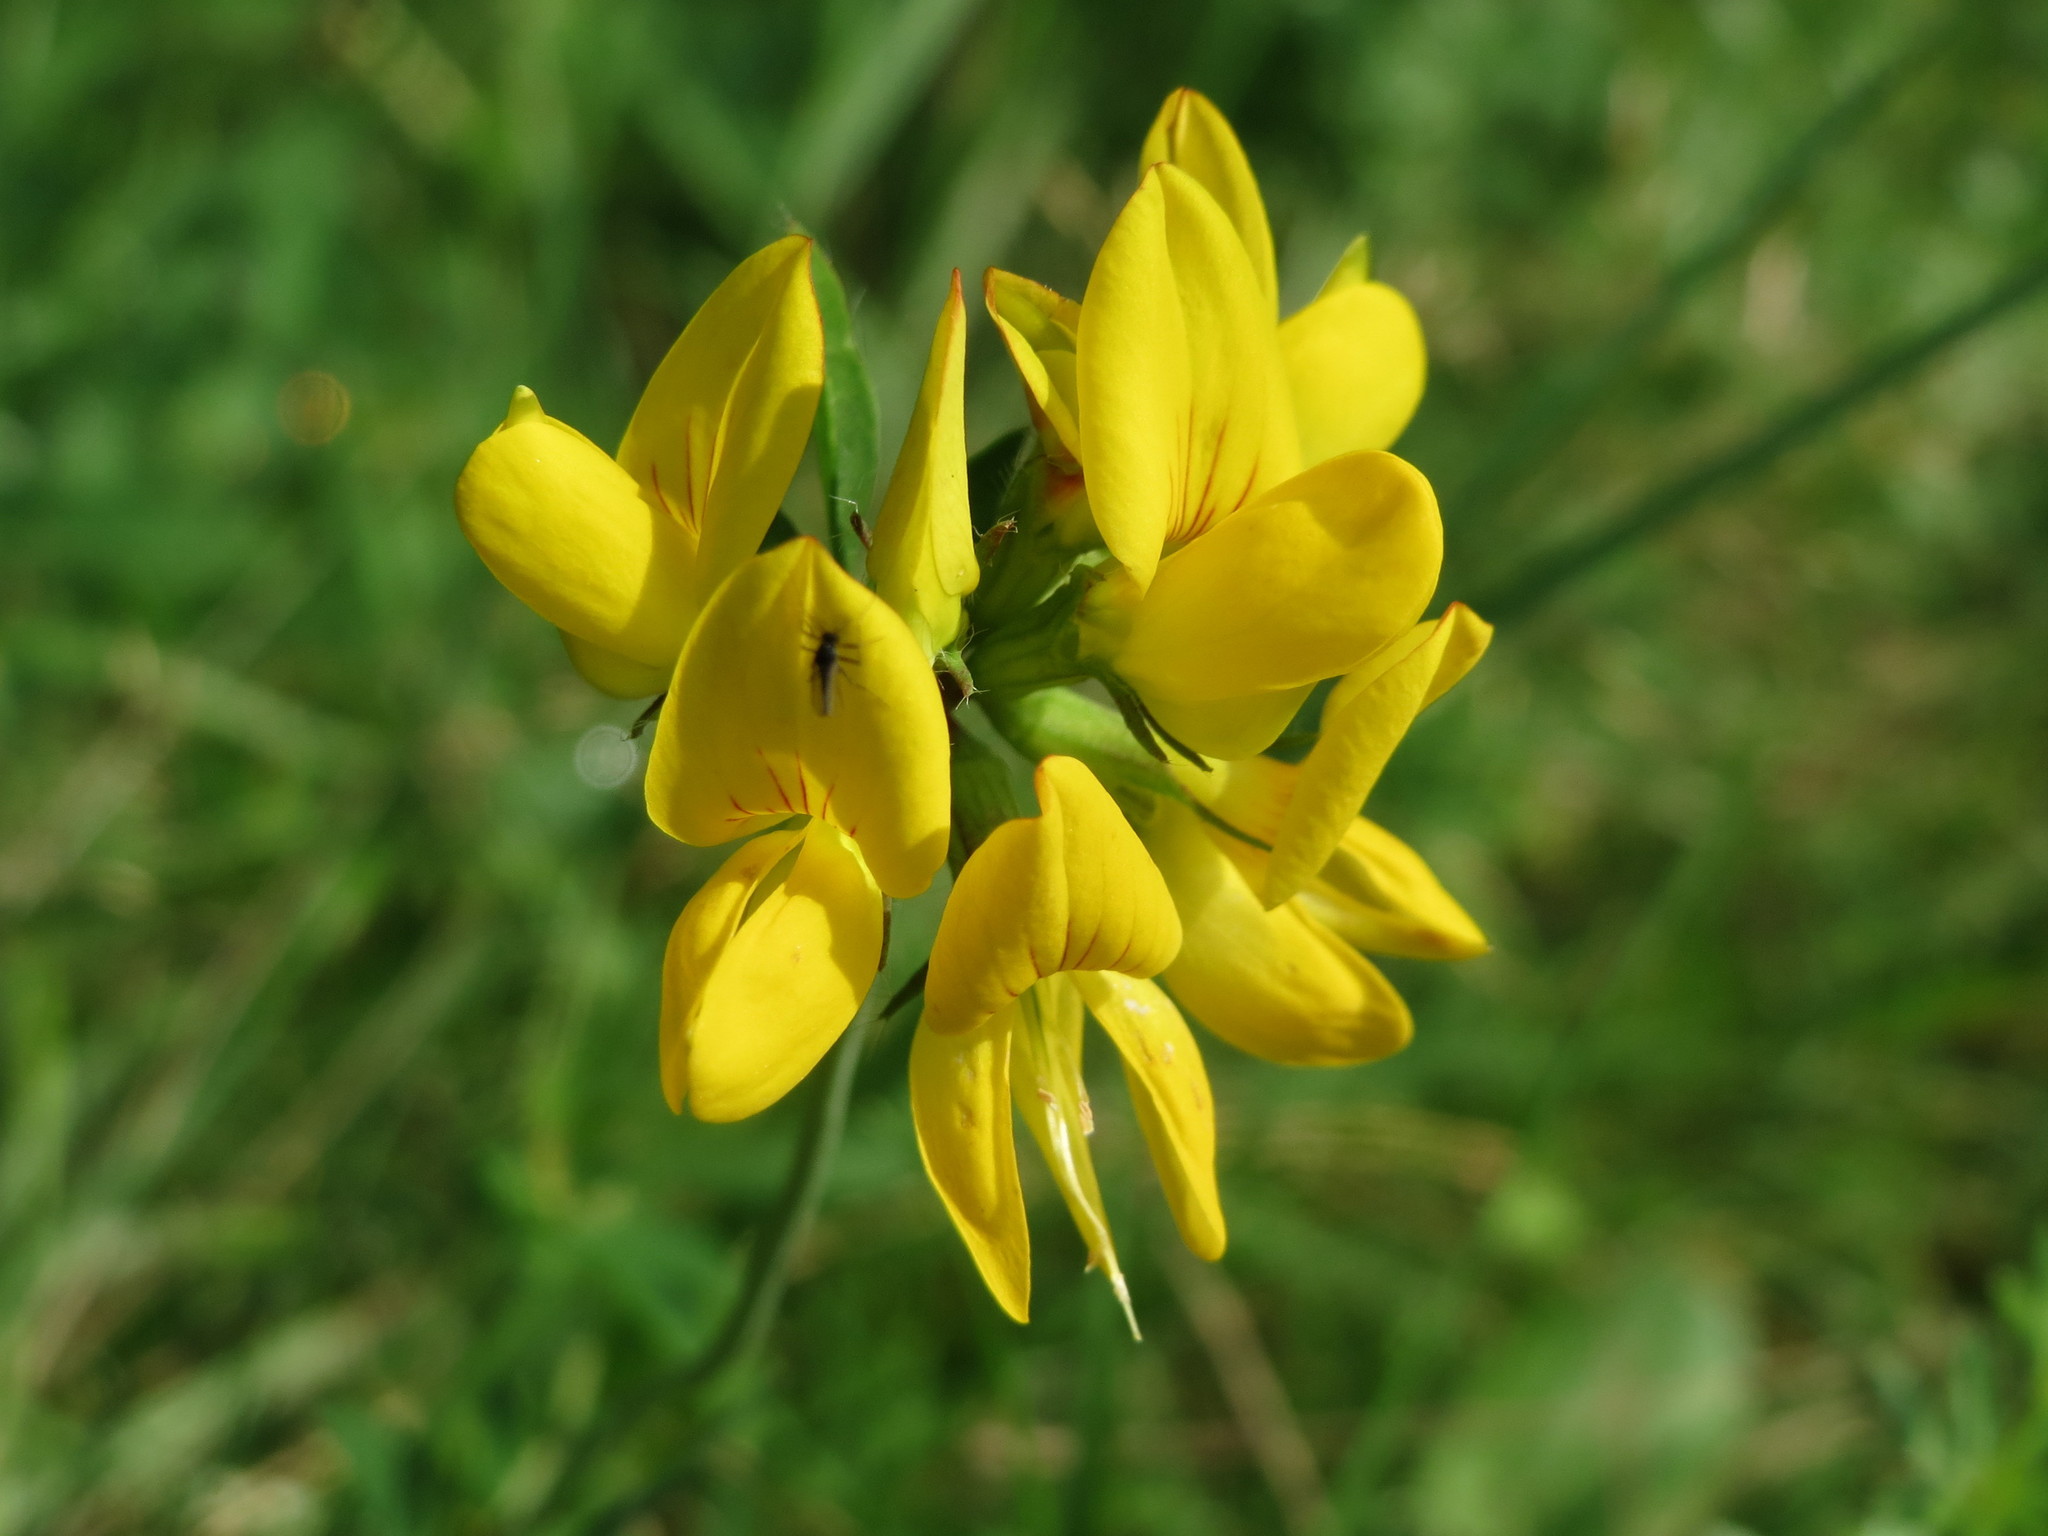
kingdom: Plantae
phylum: Tracheophyta
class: Magnoliopsida
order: Fabales
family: Fabaceae
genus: Lotus
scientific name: Lotus corniculatus
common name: Common bird's-foot-trefoil
